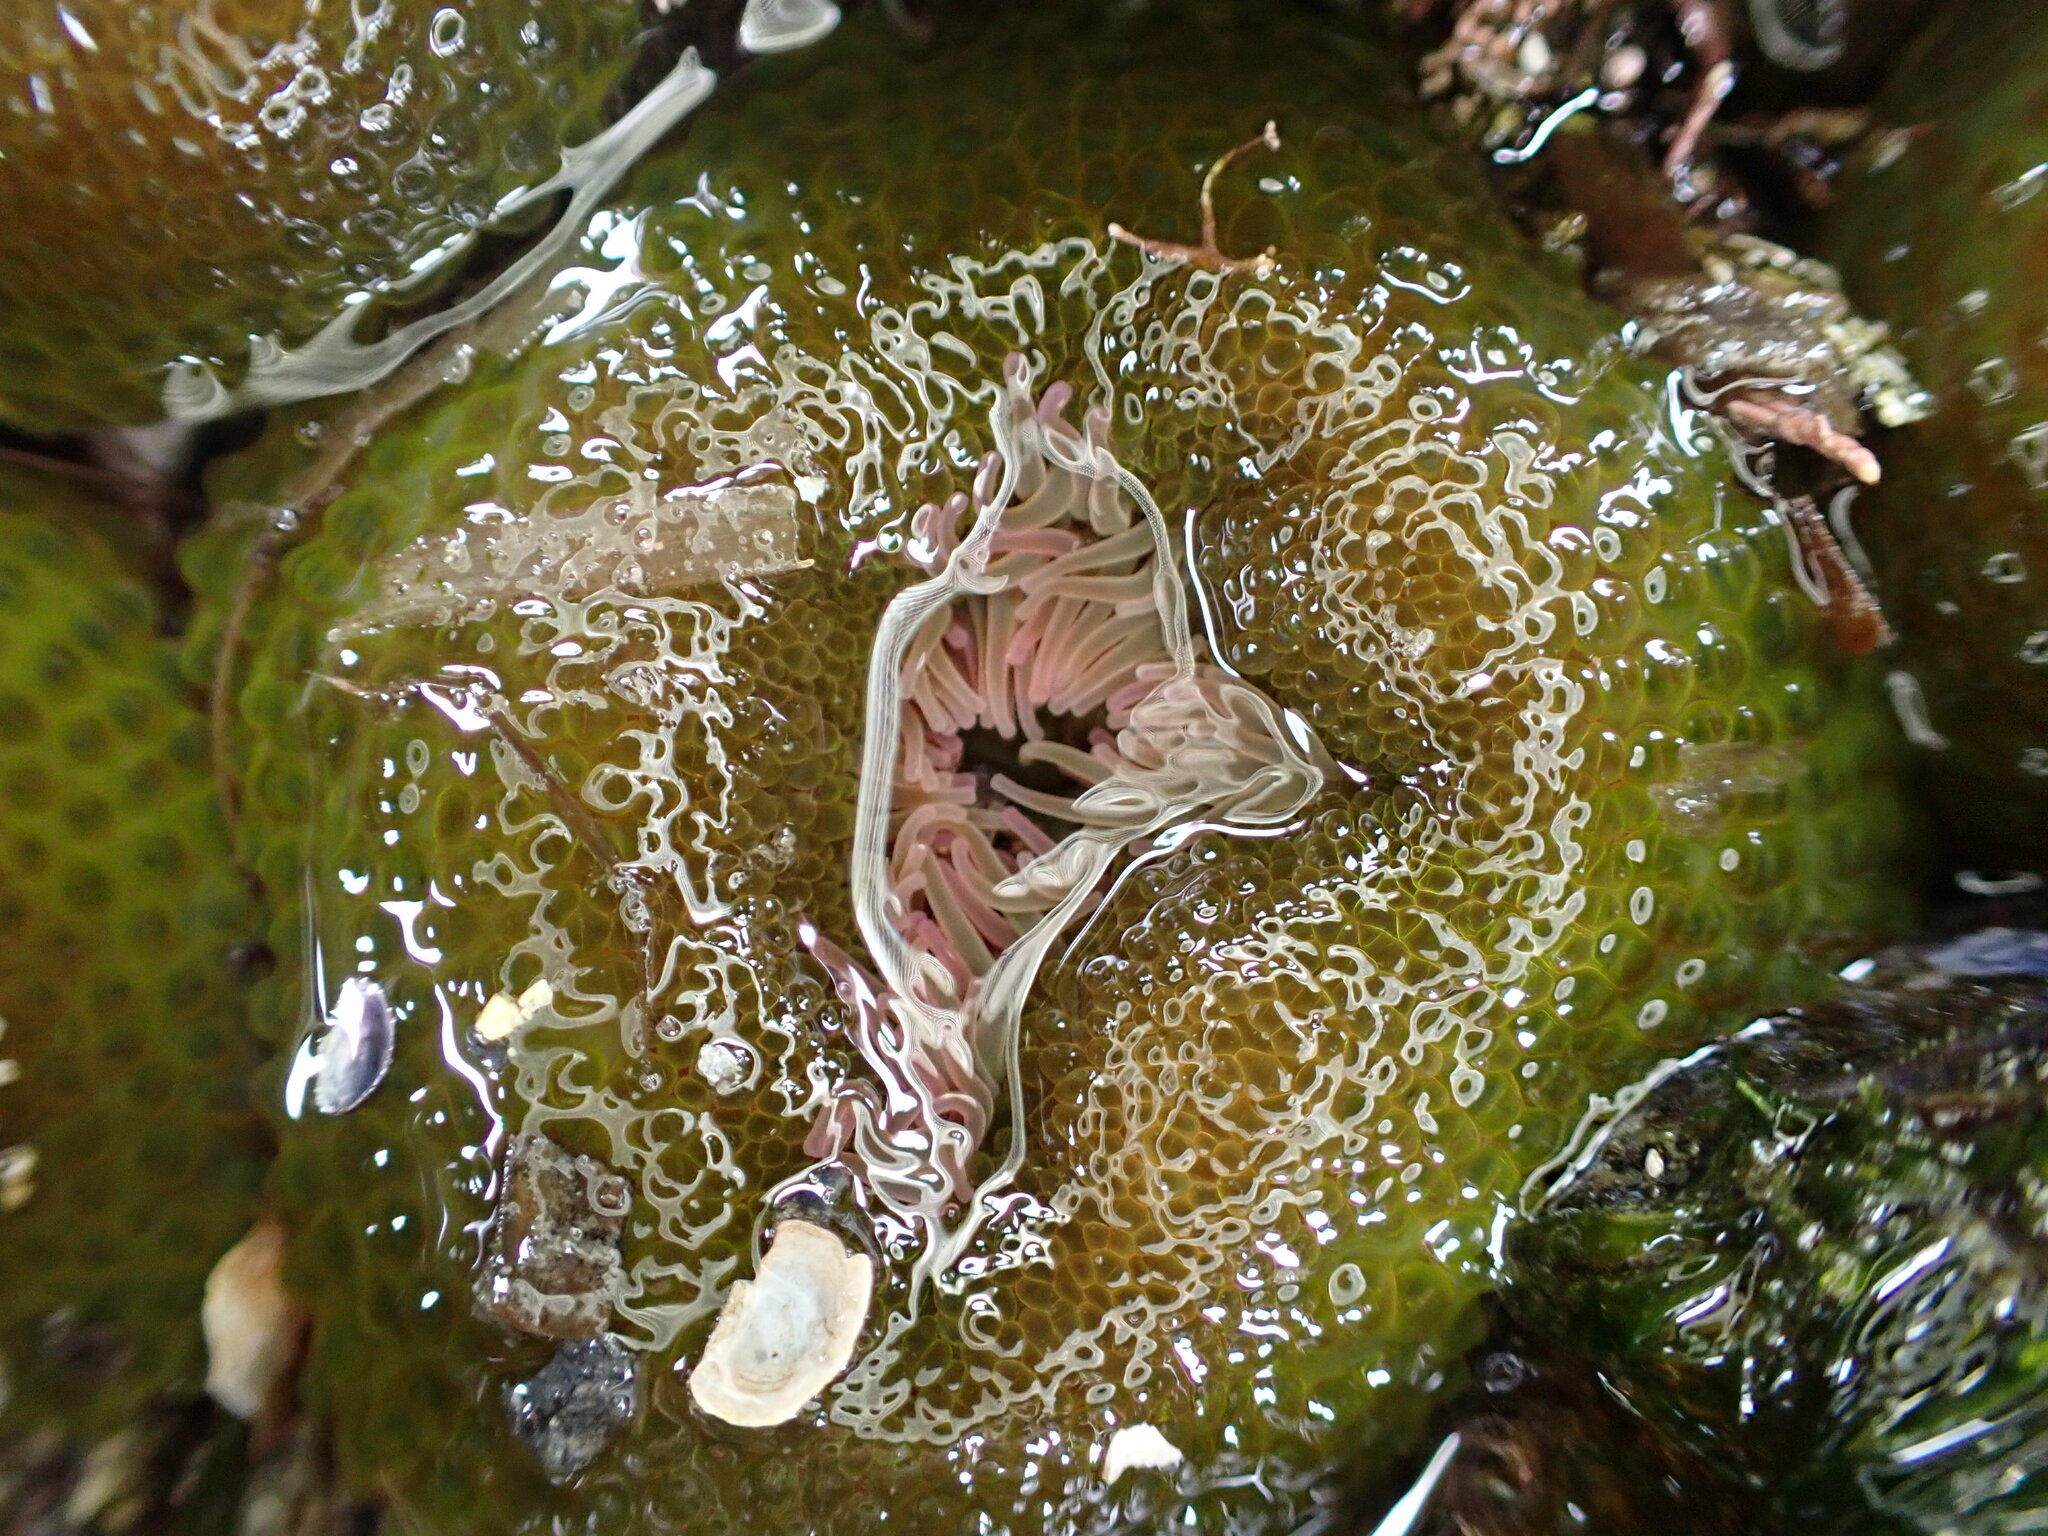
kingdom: Animalia
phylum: Cnidaria
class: Anthozoa
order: Actiniaria
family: Actiniidae
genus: Anthopleura
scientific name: Anthopleura elegantissima
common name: Clonal anemone
